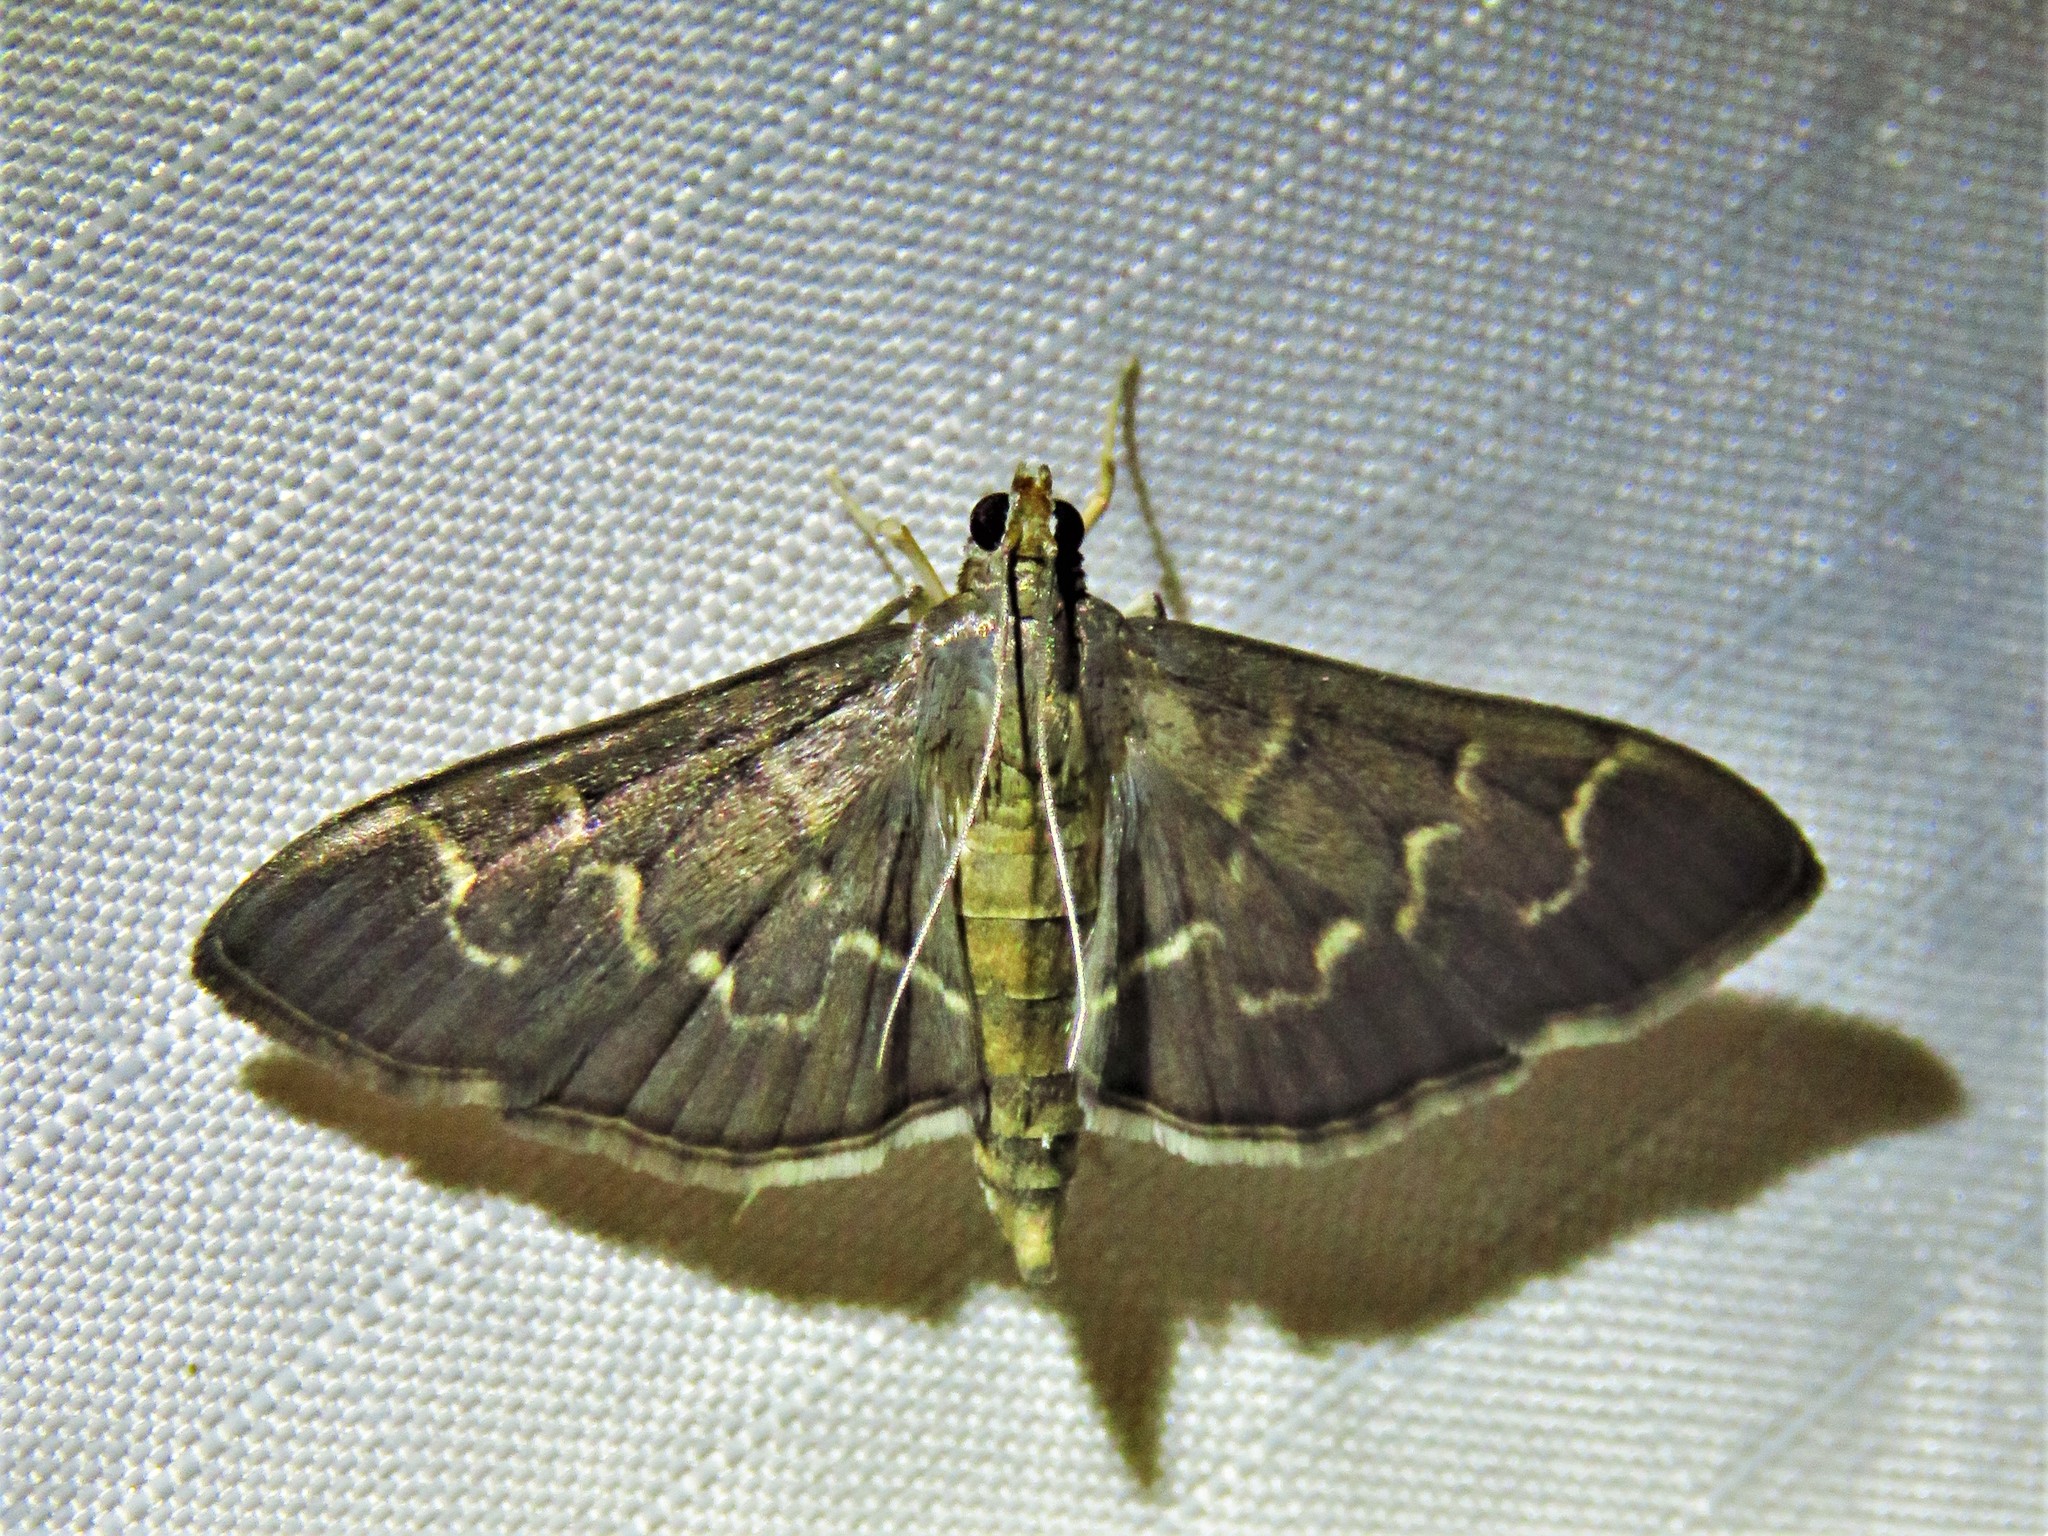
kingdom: Animalia
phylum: Arthropoda
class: Insecta
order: Lepidoptera
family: Crambidae
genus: Pilocrocis
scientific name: Pilocrocis ramentalis
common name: Scraped pilocrocis
